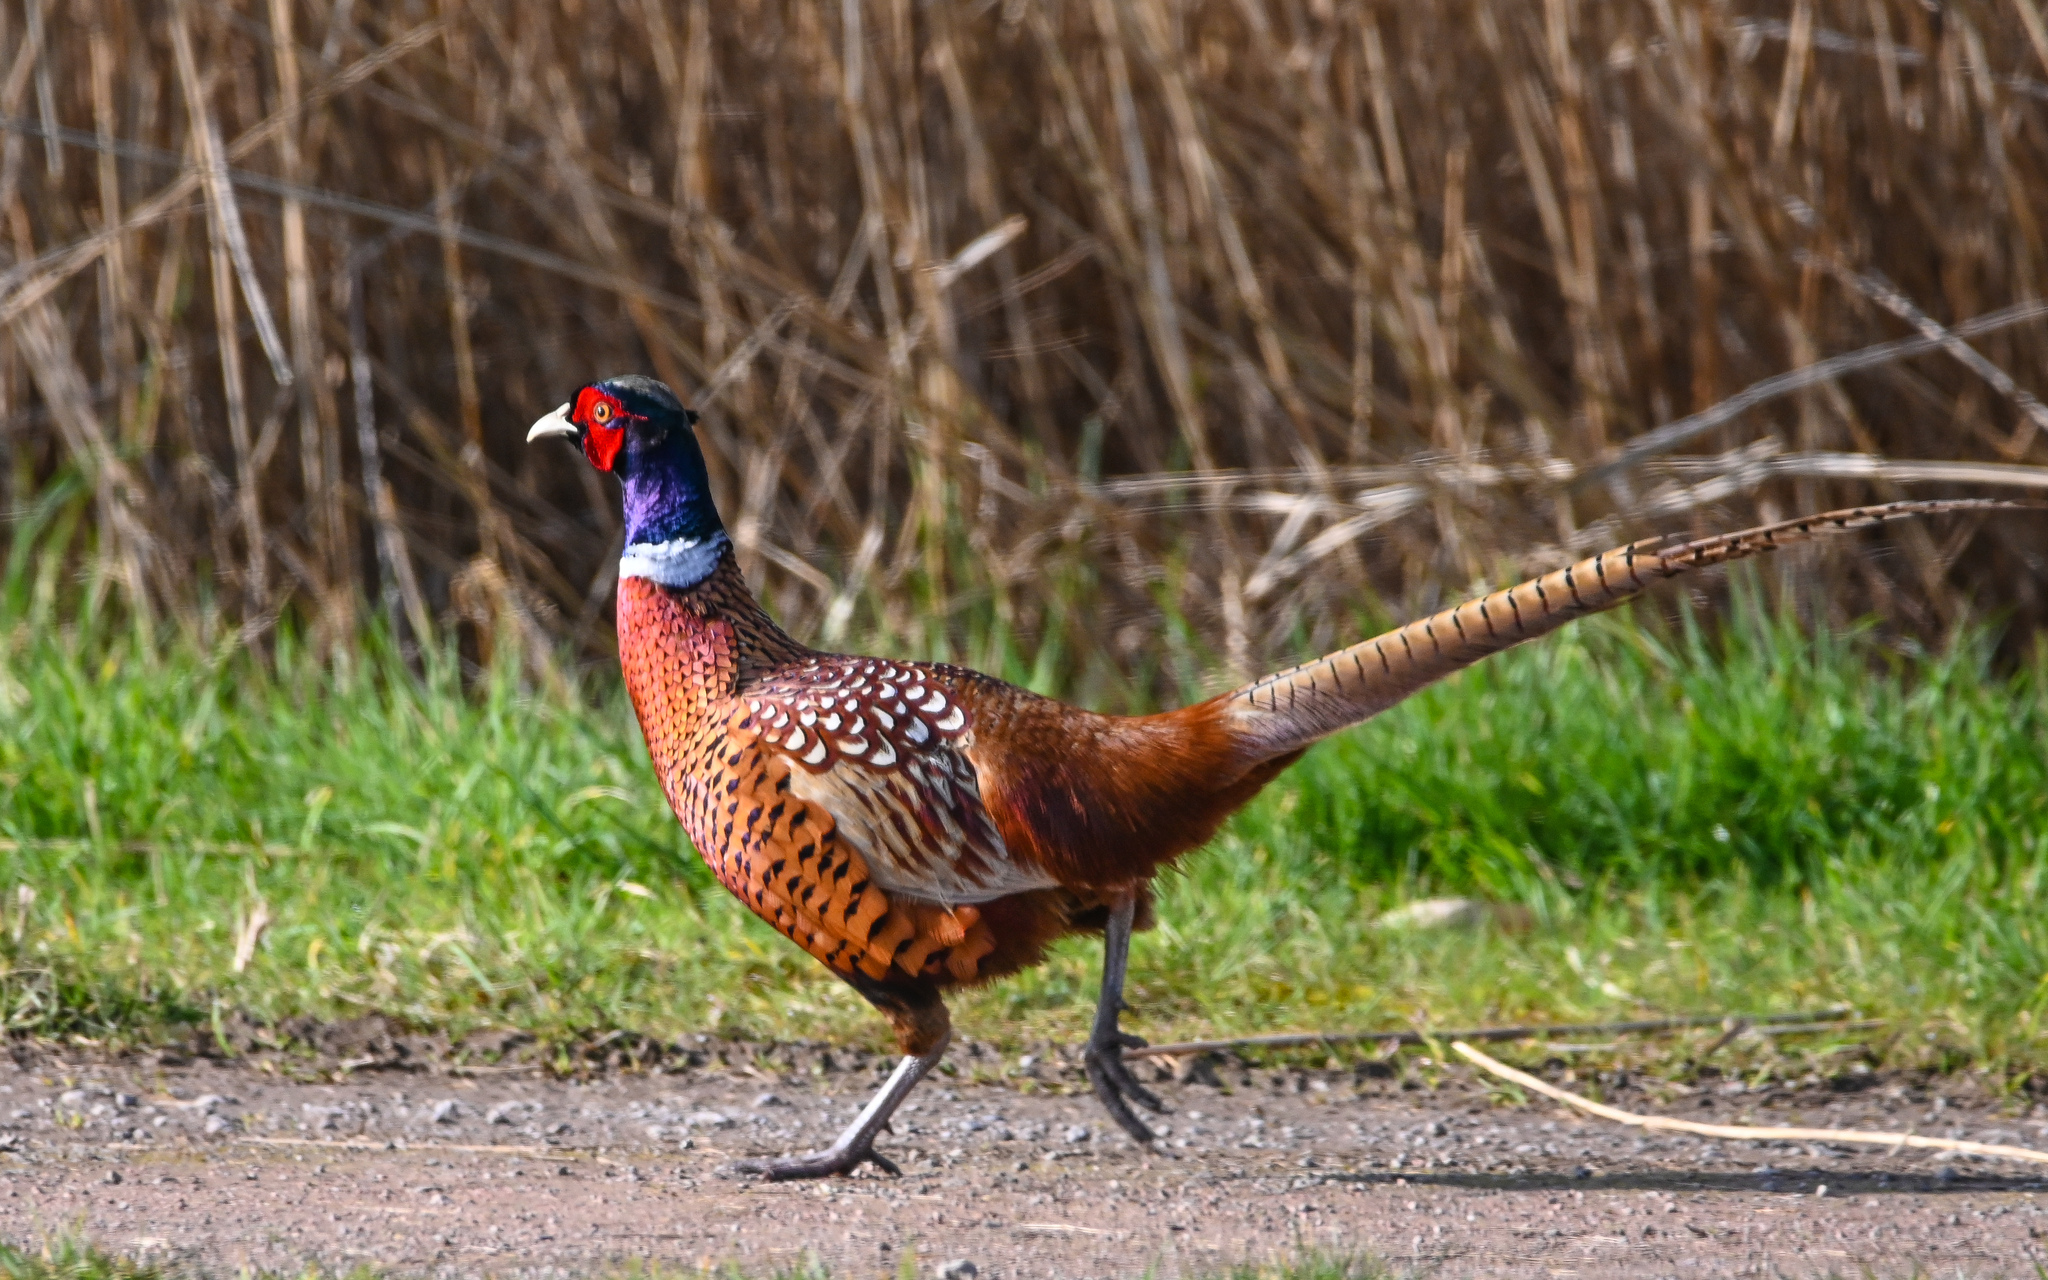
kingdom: Animalia
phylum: Chordata
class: Aves
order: Galliformes
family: Phasianidae
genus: Phasianus
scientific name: Phasianus colchicus
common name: Common pheasant
